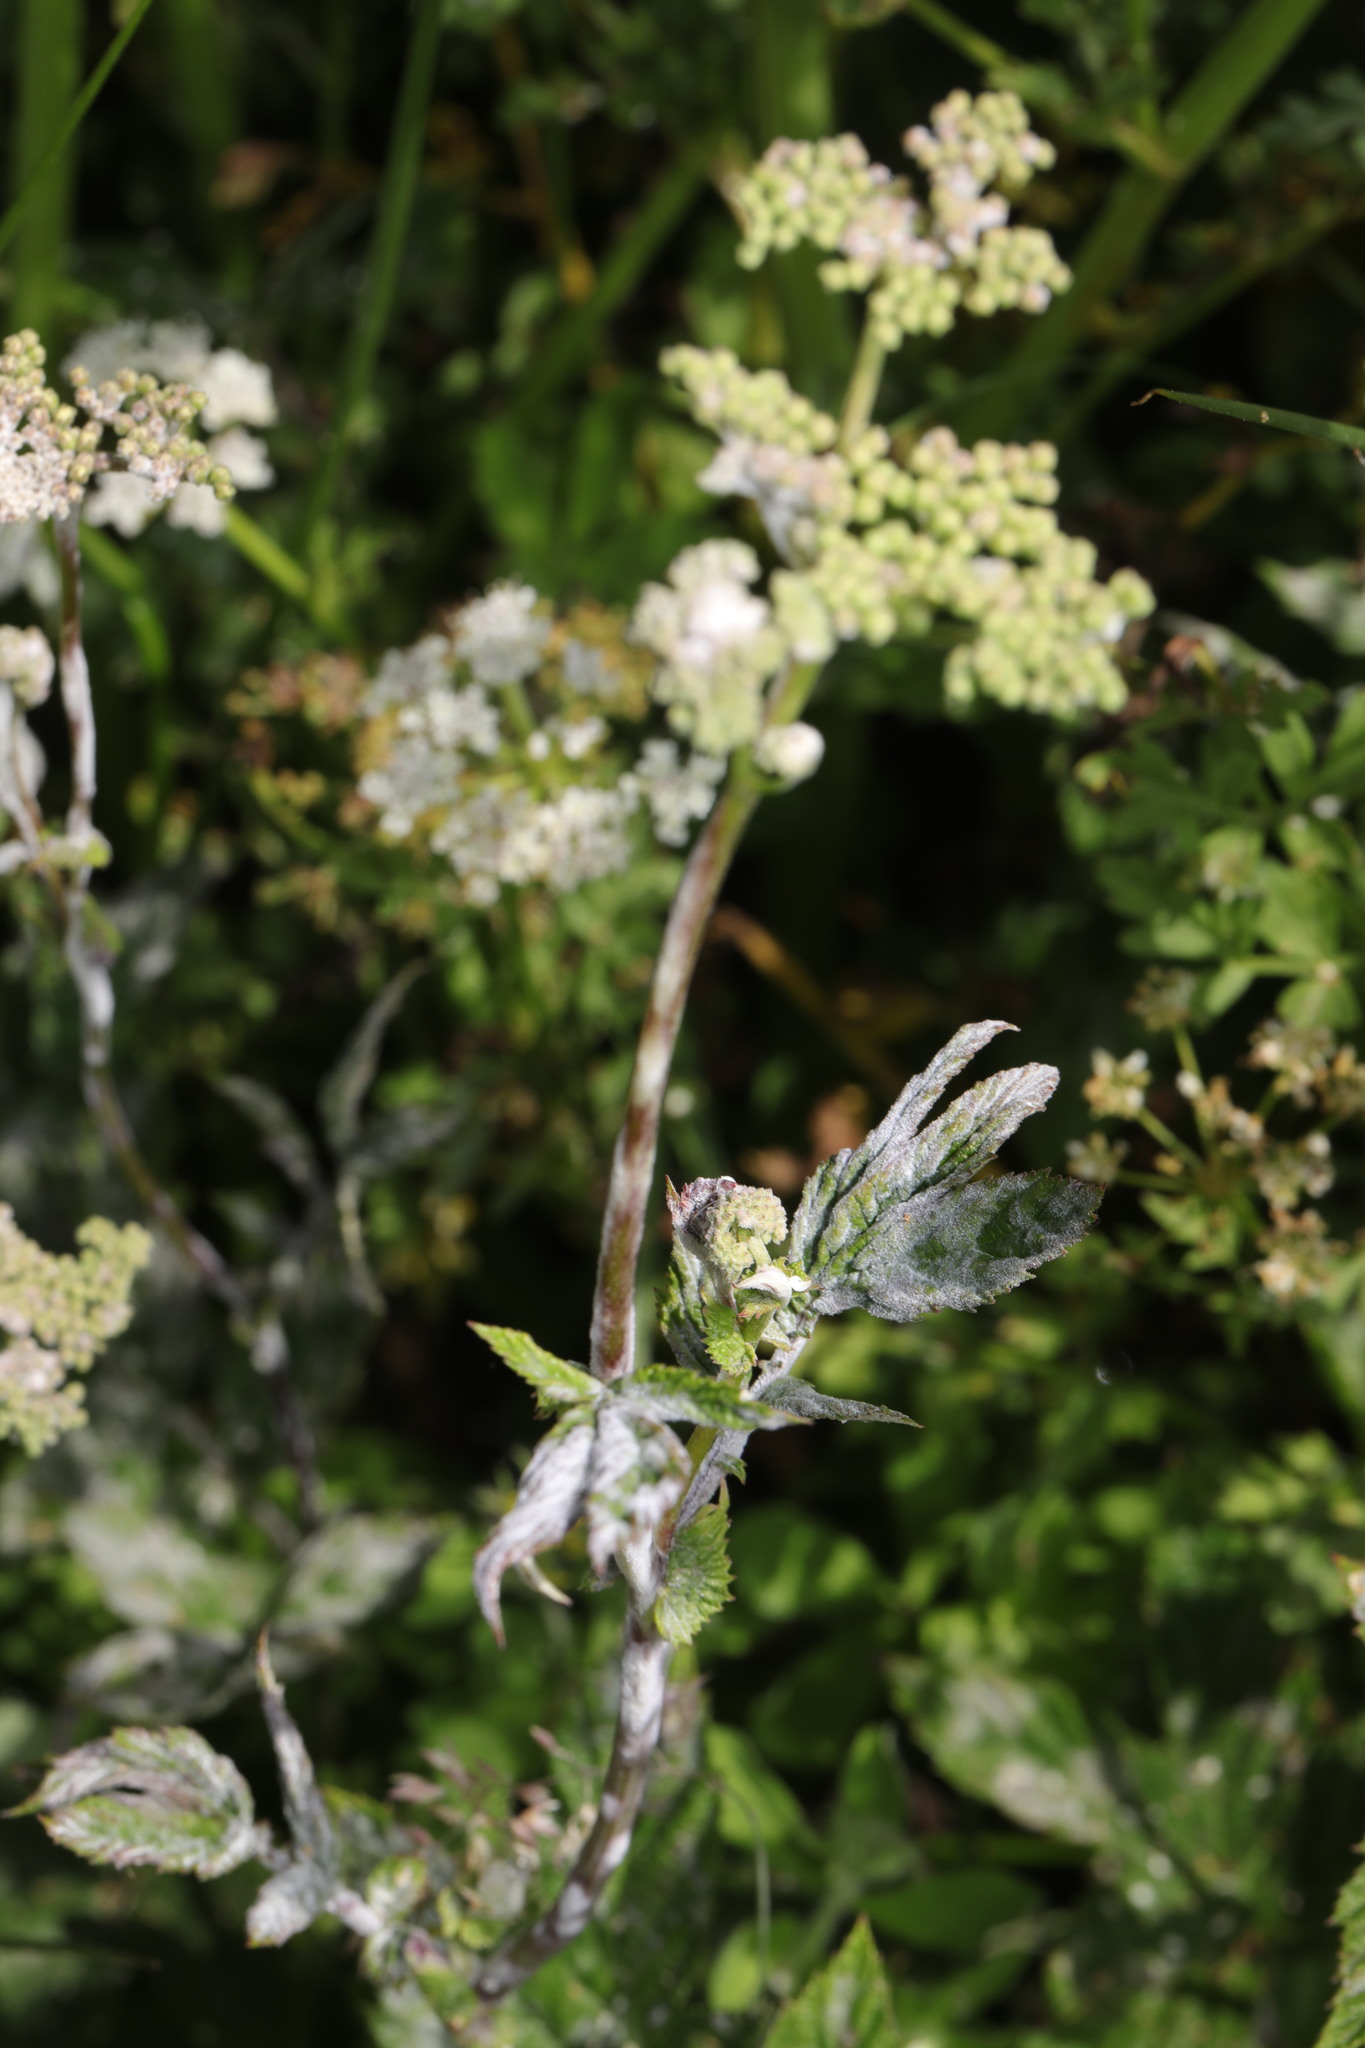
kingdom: Plantae
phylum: Tracheophyta
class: Magnoliopsida
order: Rosales
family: Rosaceae
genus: Filipendula
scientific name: Filipendula ulmaria
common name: Meadowsweet
